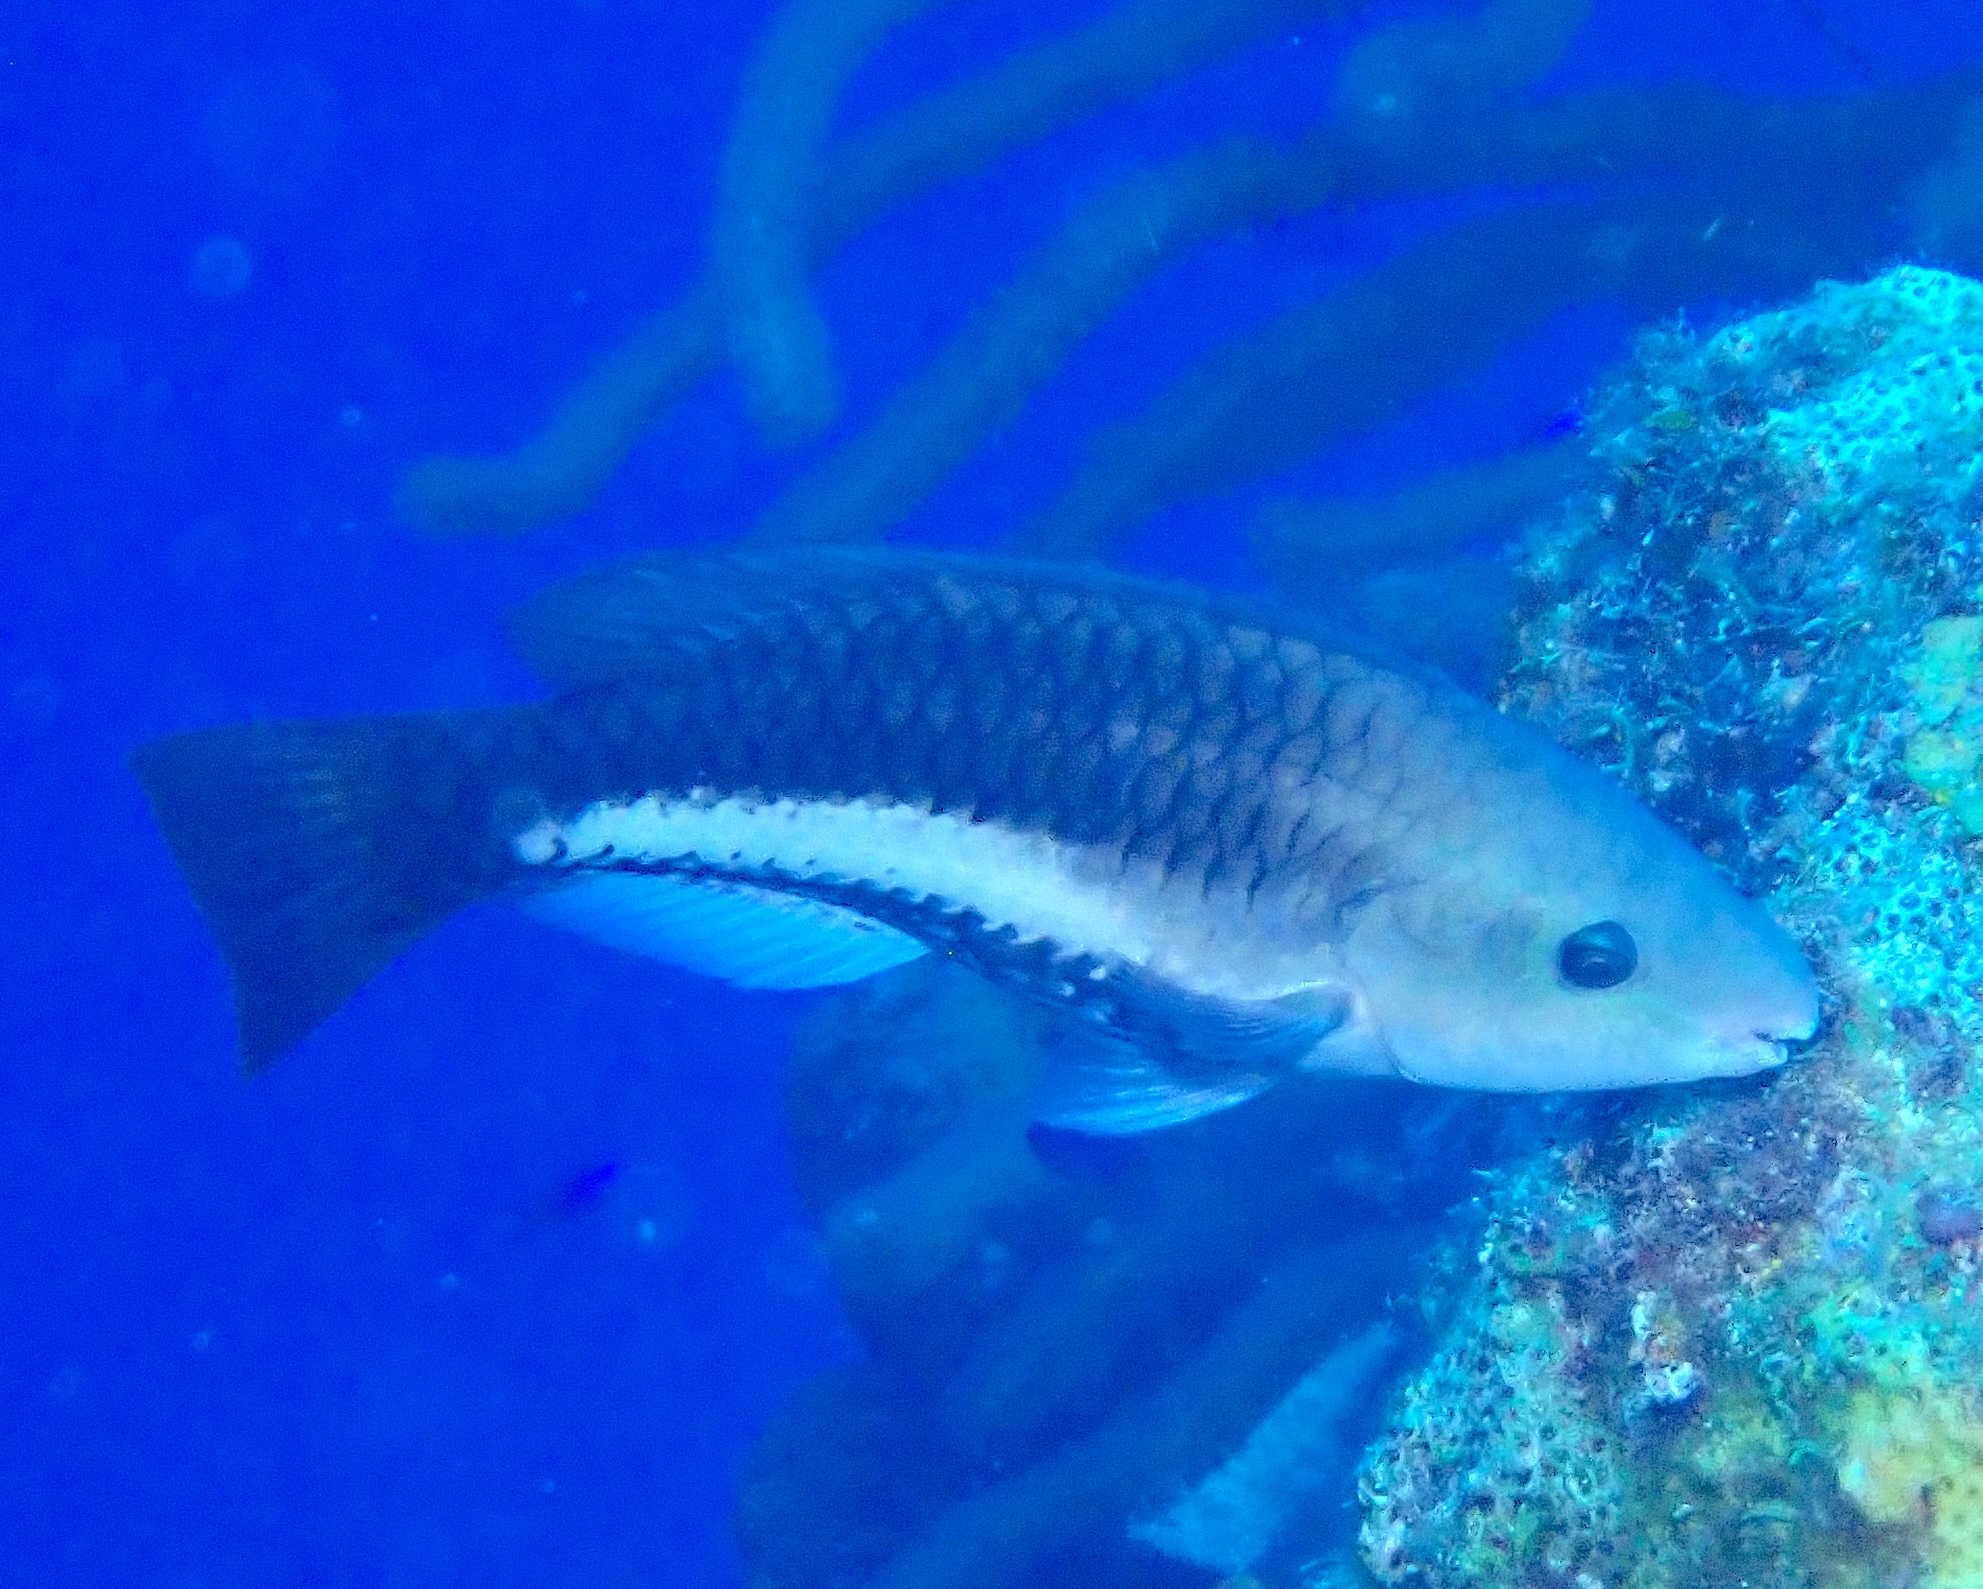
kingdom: Animalia
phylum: Chordata
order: Perciformes
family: Scaridae
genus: Scarus
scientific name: Scarus vetula
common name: Queen parrotfish
